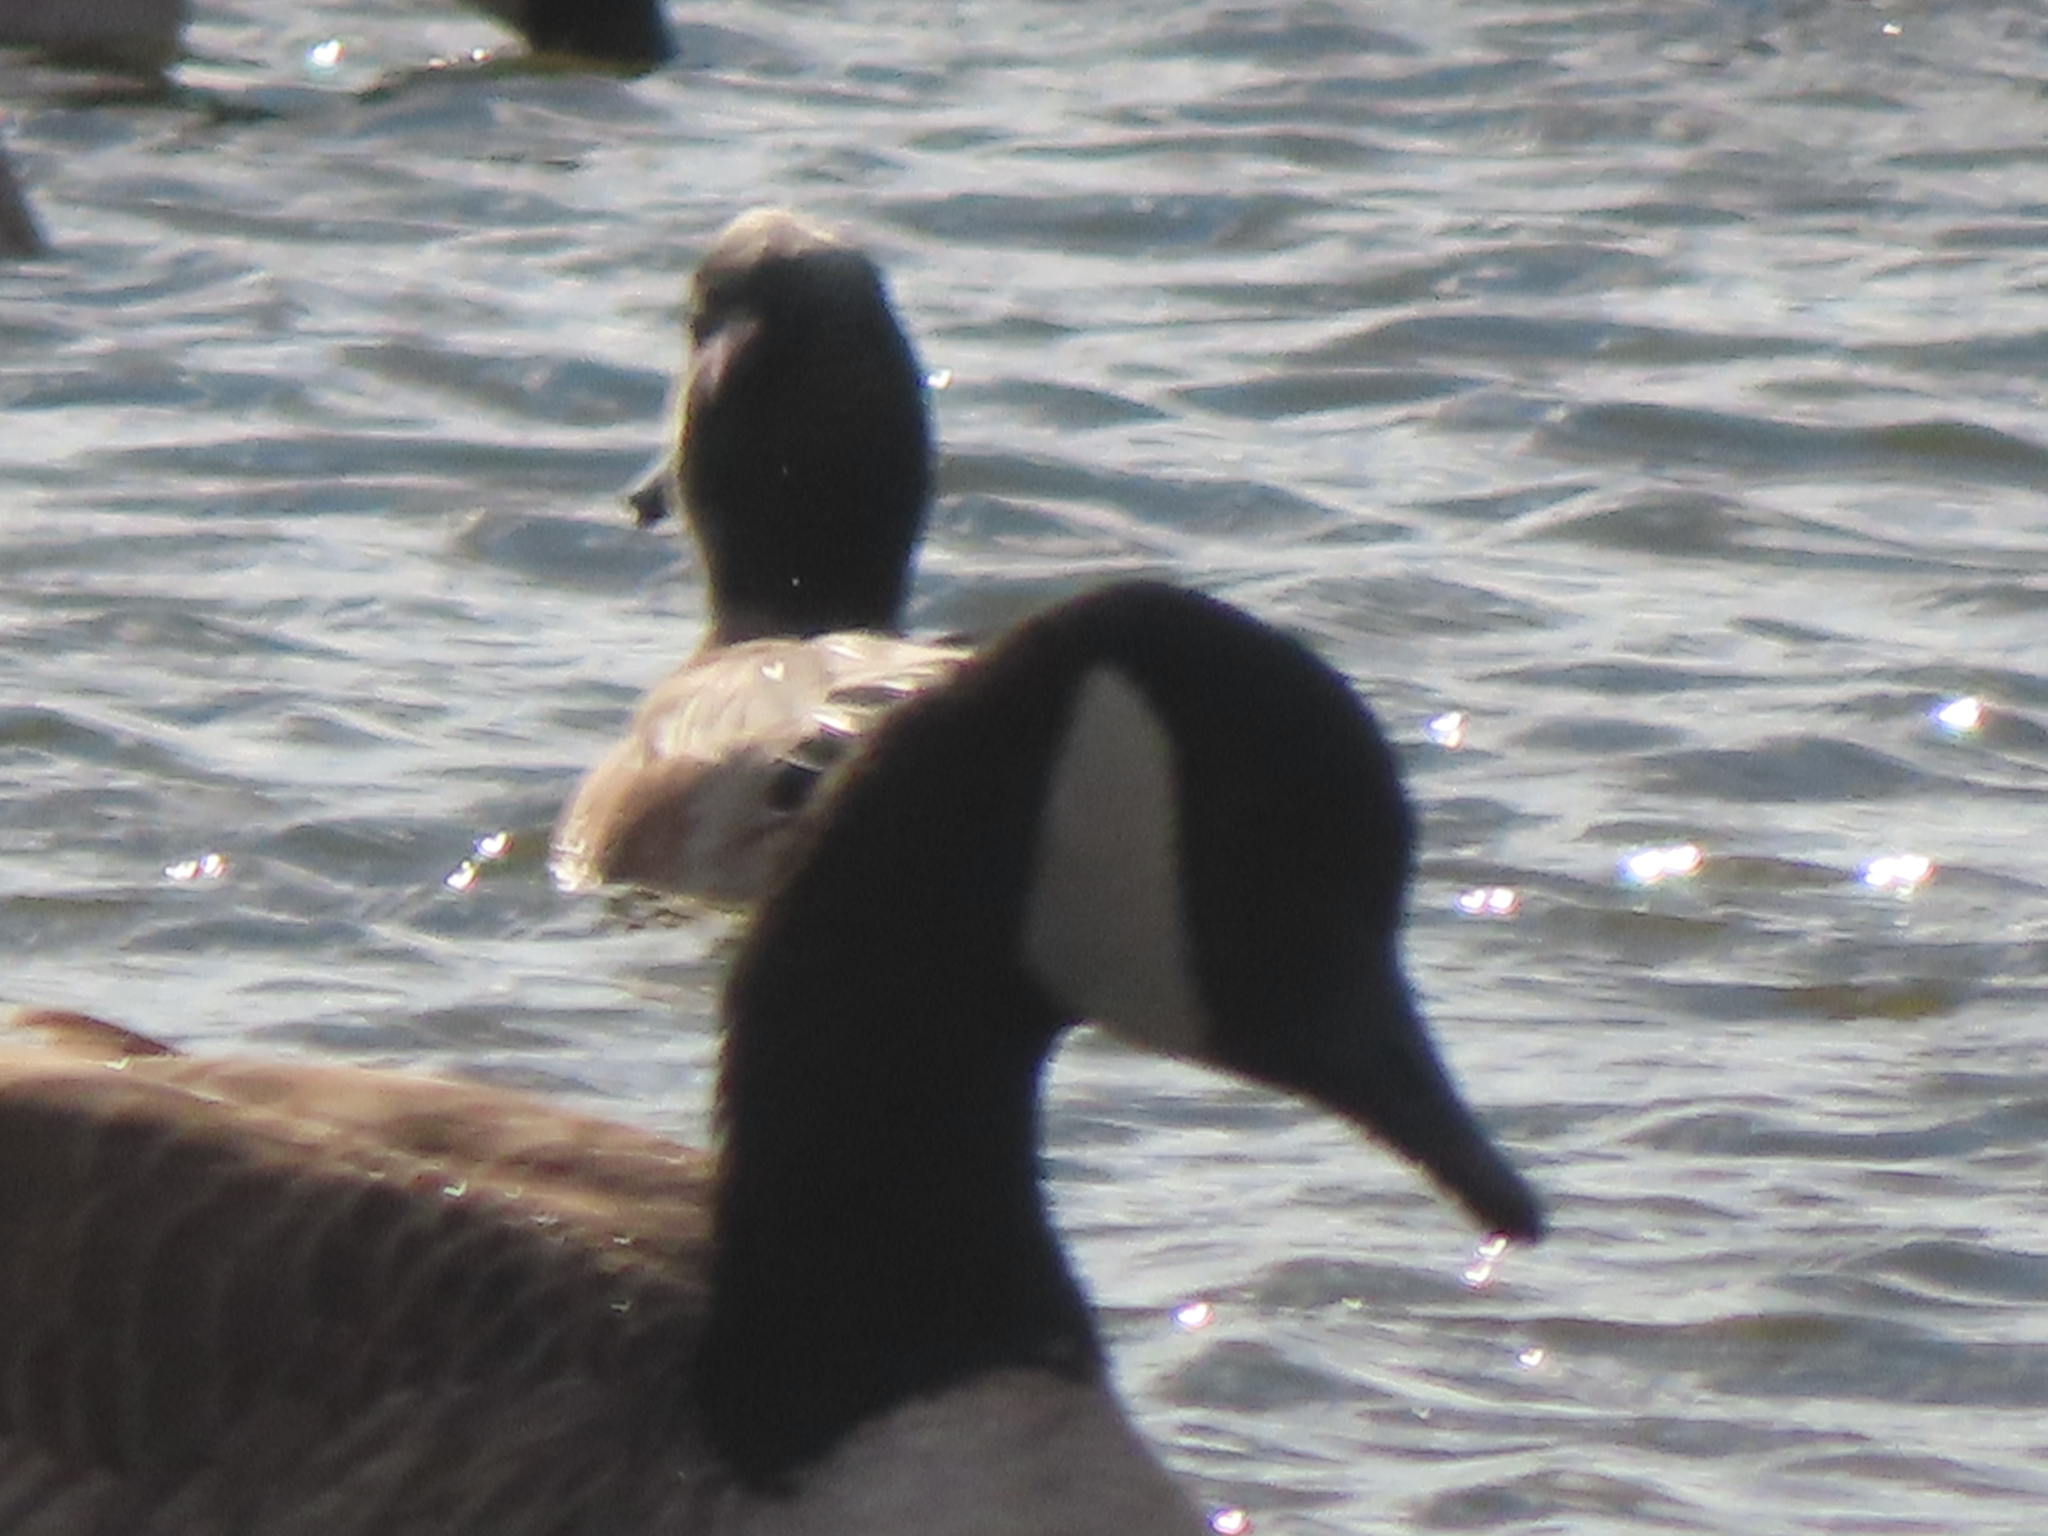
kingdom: Animalia
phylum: Chordata
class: Aves
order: Anseriformes
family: Anatidae
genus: Branta
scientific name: Branta canadensis
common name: Canada goose
